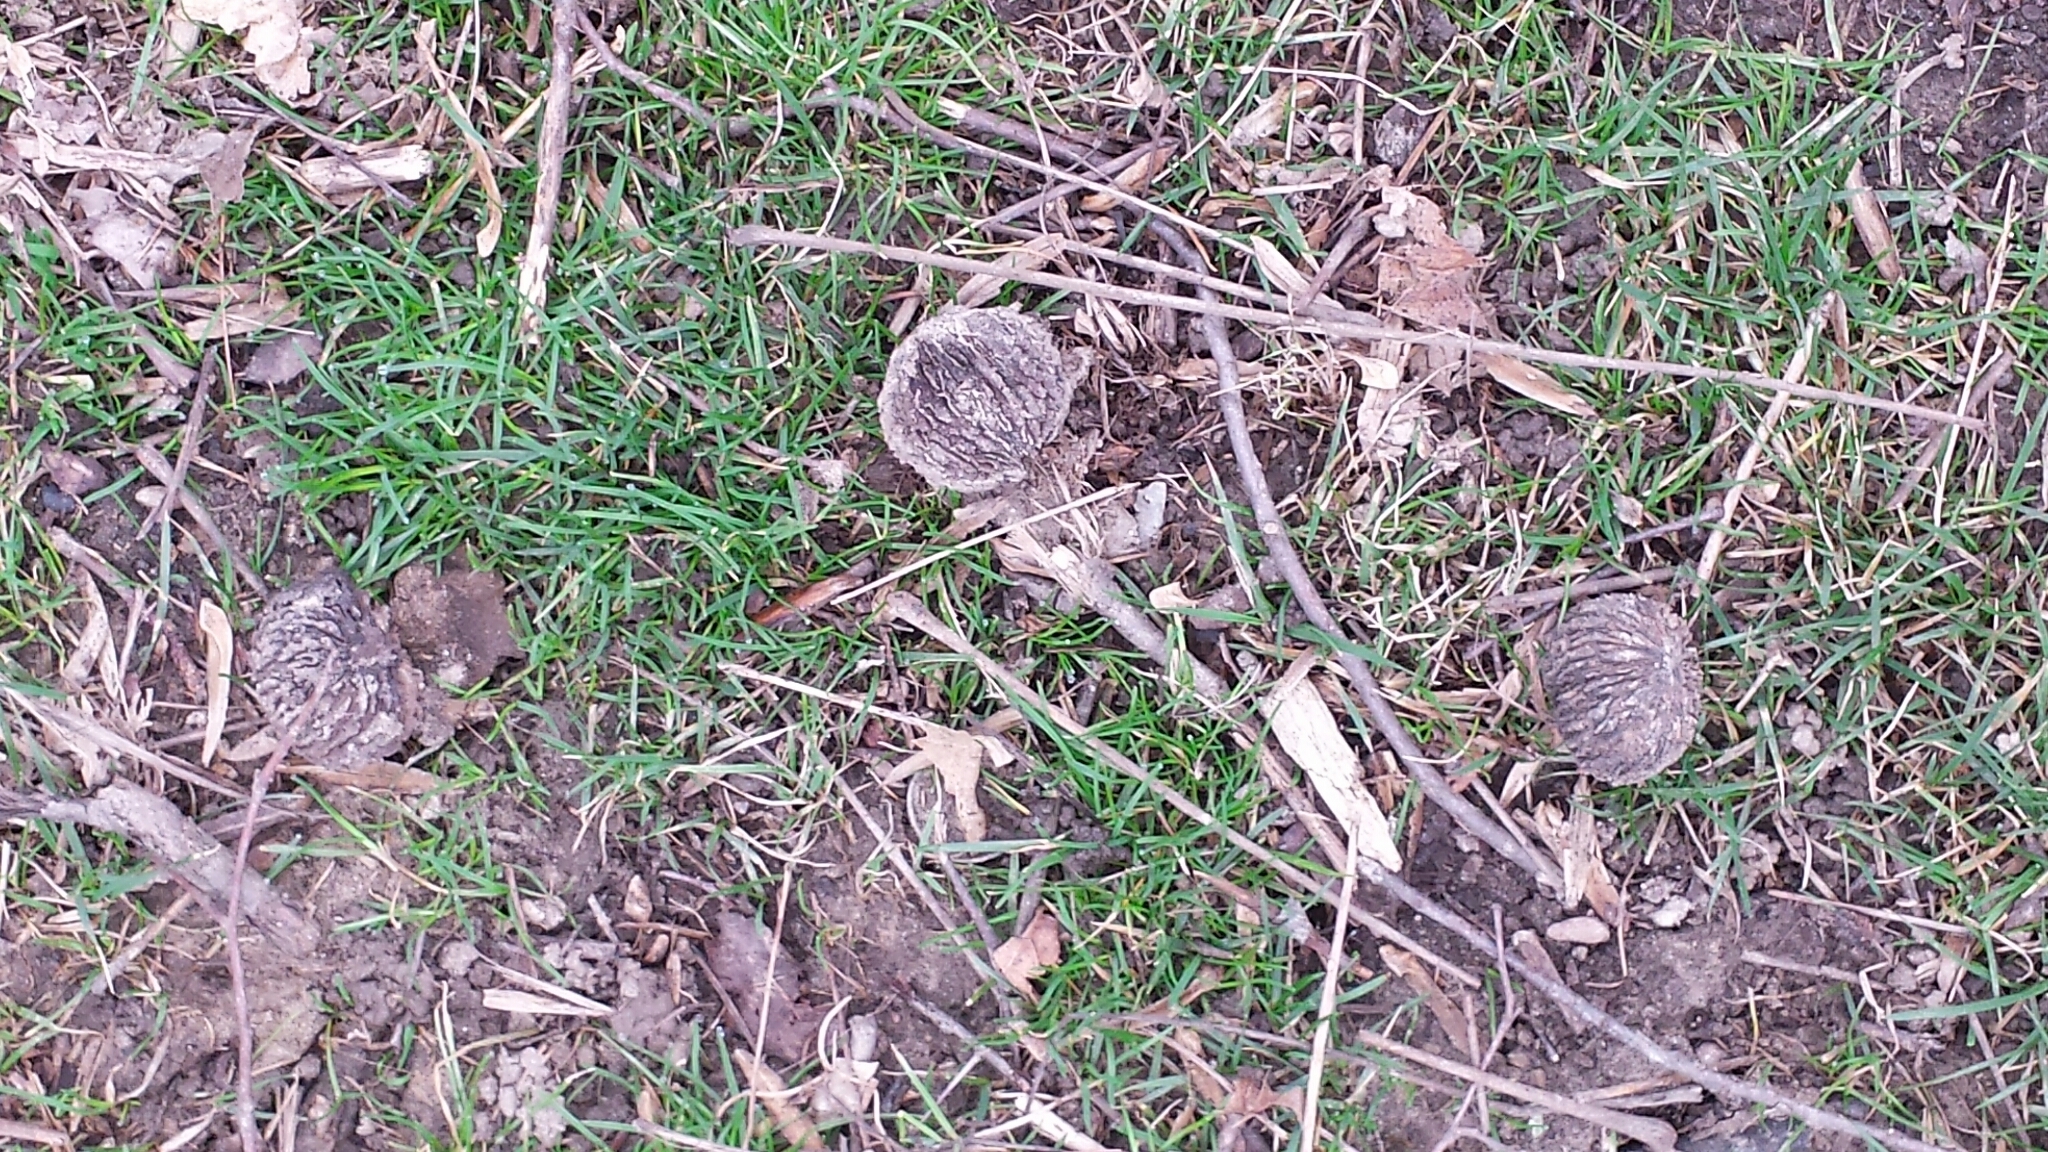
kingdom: Plantae
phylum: Tracheophyta
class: Magnoliopsida
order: Fagales
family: Juglandaceae
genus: Juglans
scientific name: Juglans nigra
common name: Black walnut
